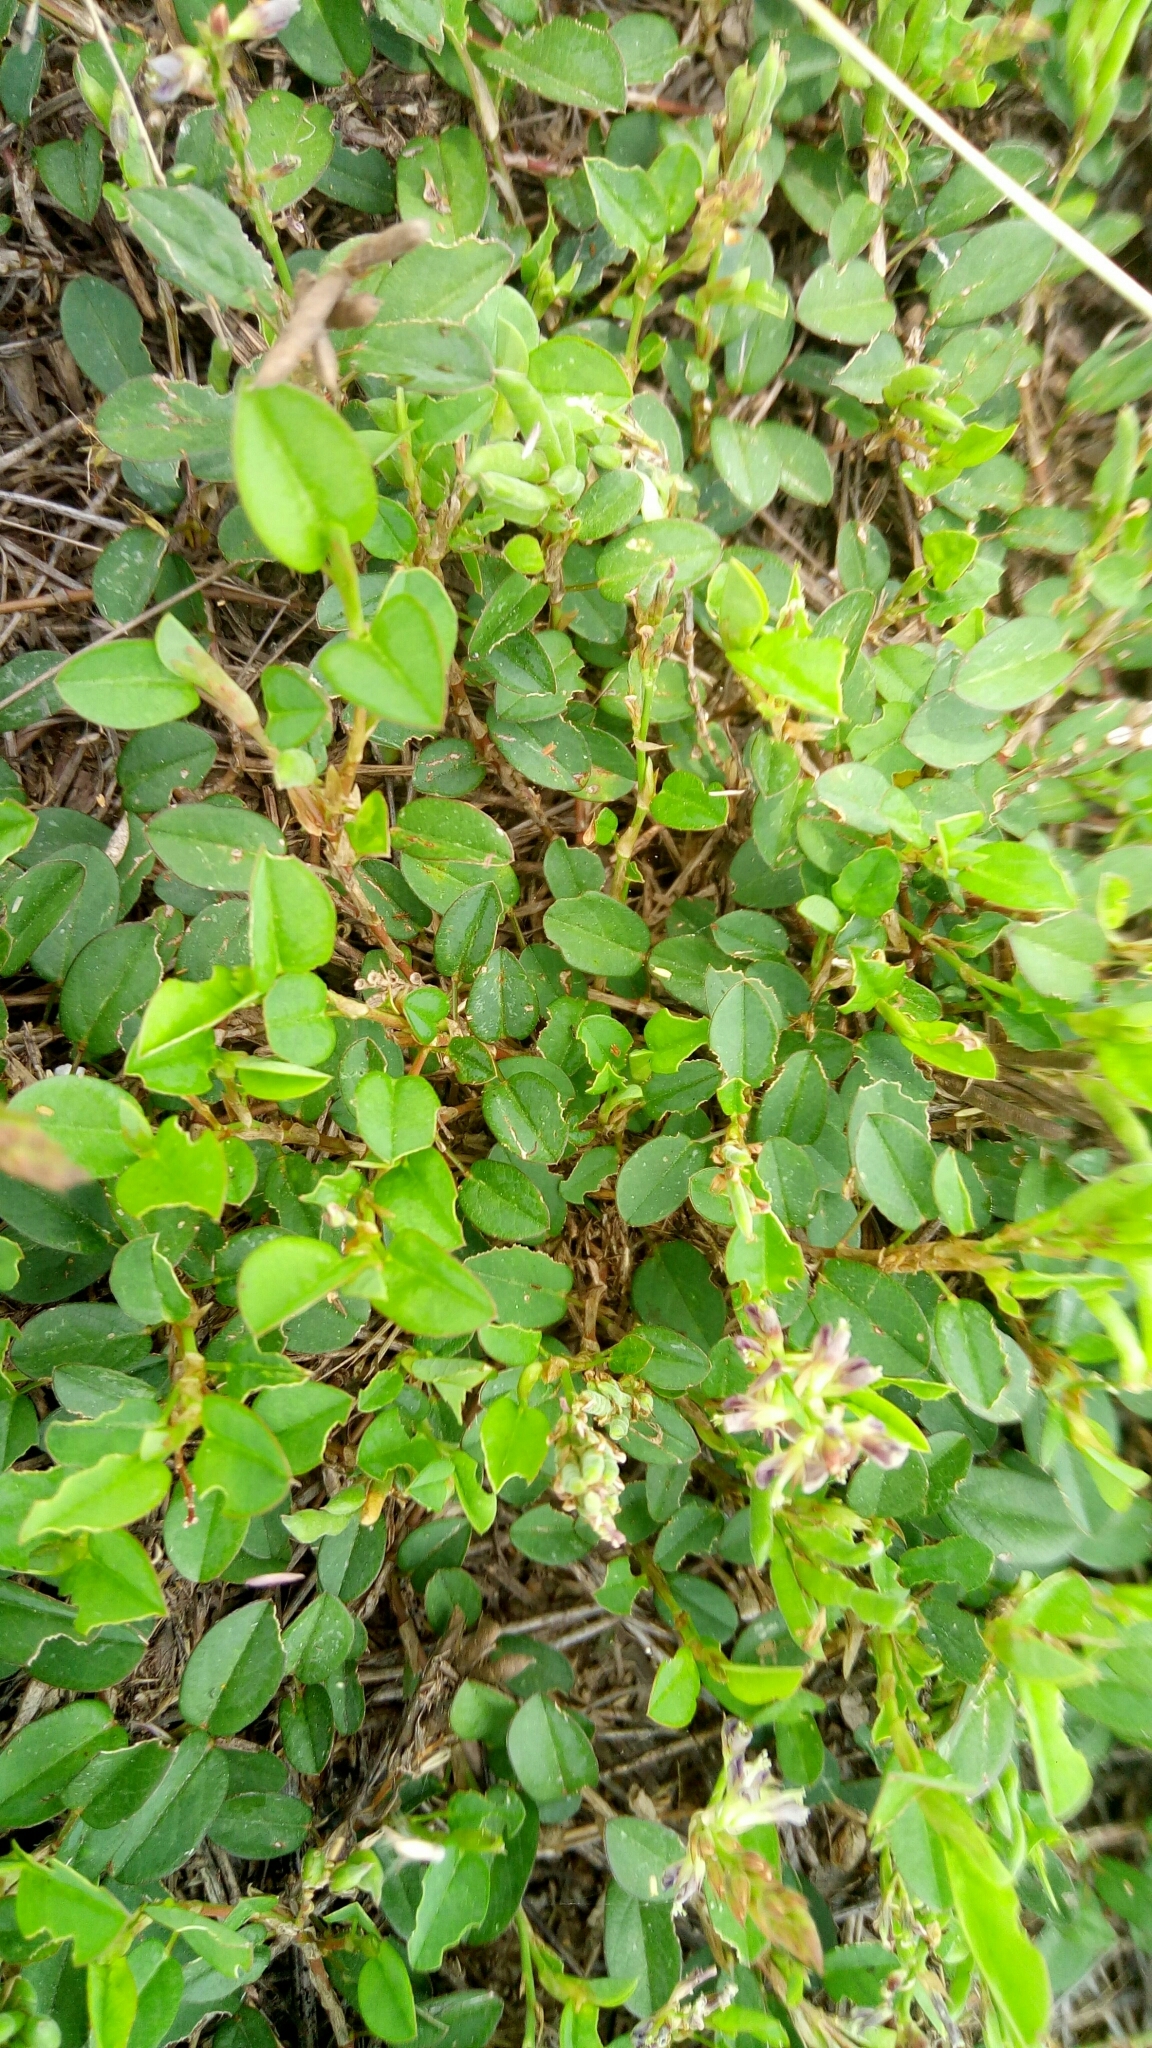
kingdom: Plantae
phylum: Tracheophyta
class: Magnoliopsida
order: Fabales
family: Fabaceae
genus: Alysicarpus
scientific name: Alysicarpus vaginalis
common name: White moneywort
